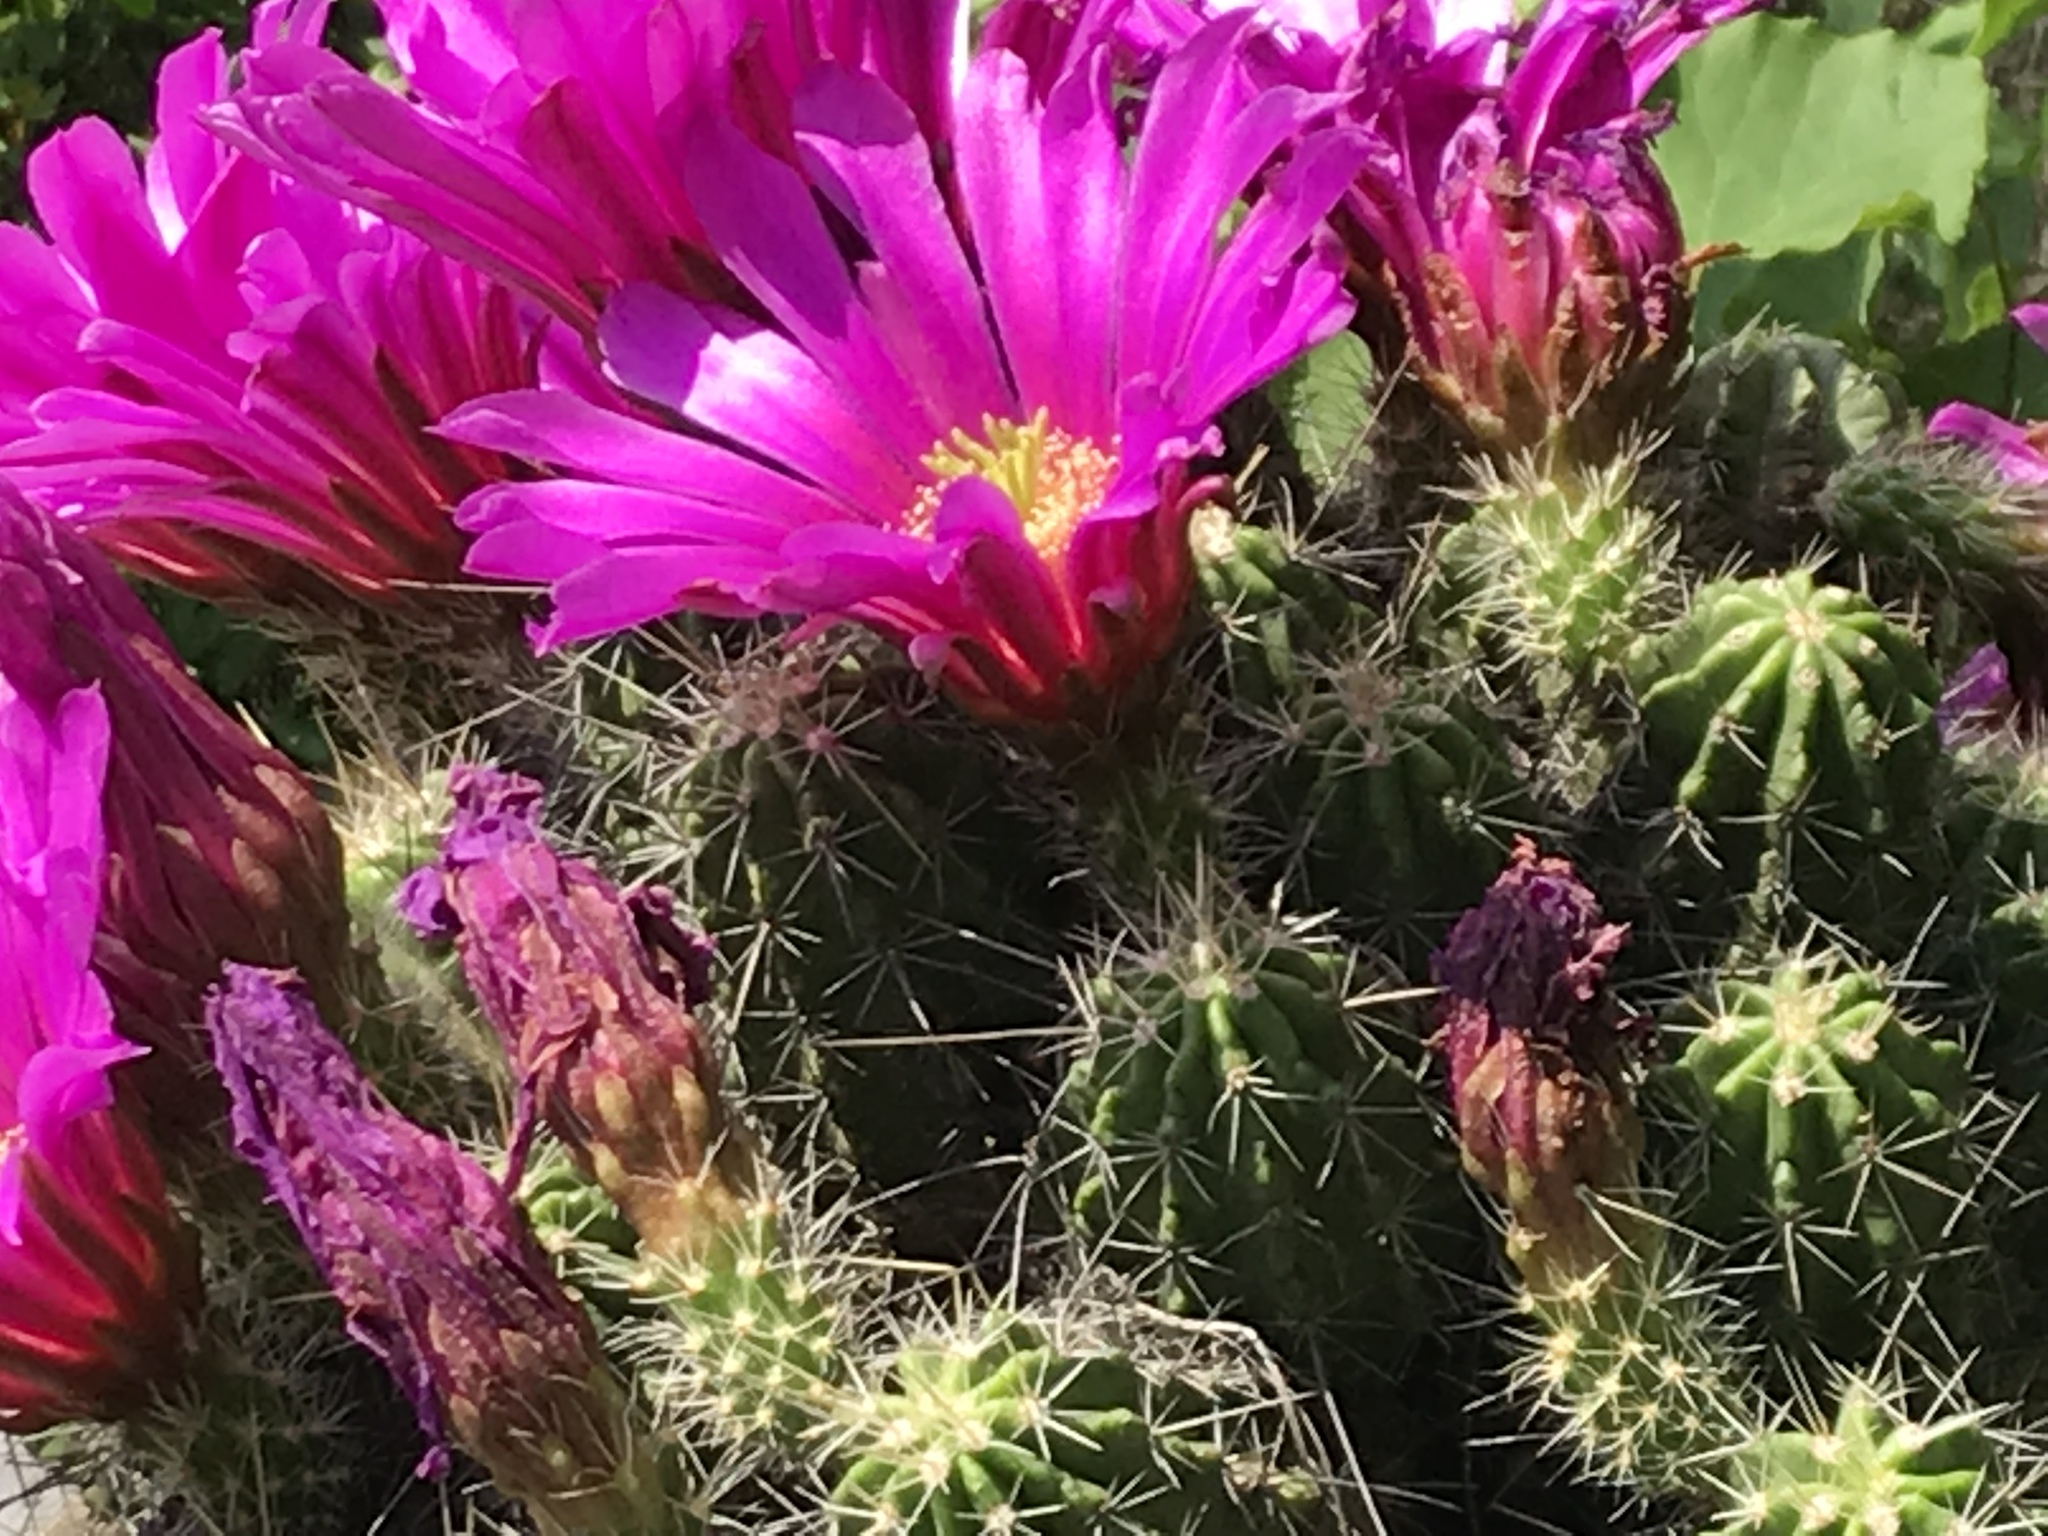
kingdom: Plantae
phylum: Tracheophyta
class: Magnoliopsida
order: Caryophyllales
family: Cactaceae
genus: Echinocereus
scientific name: Echinocereus viereckii
